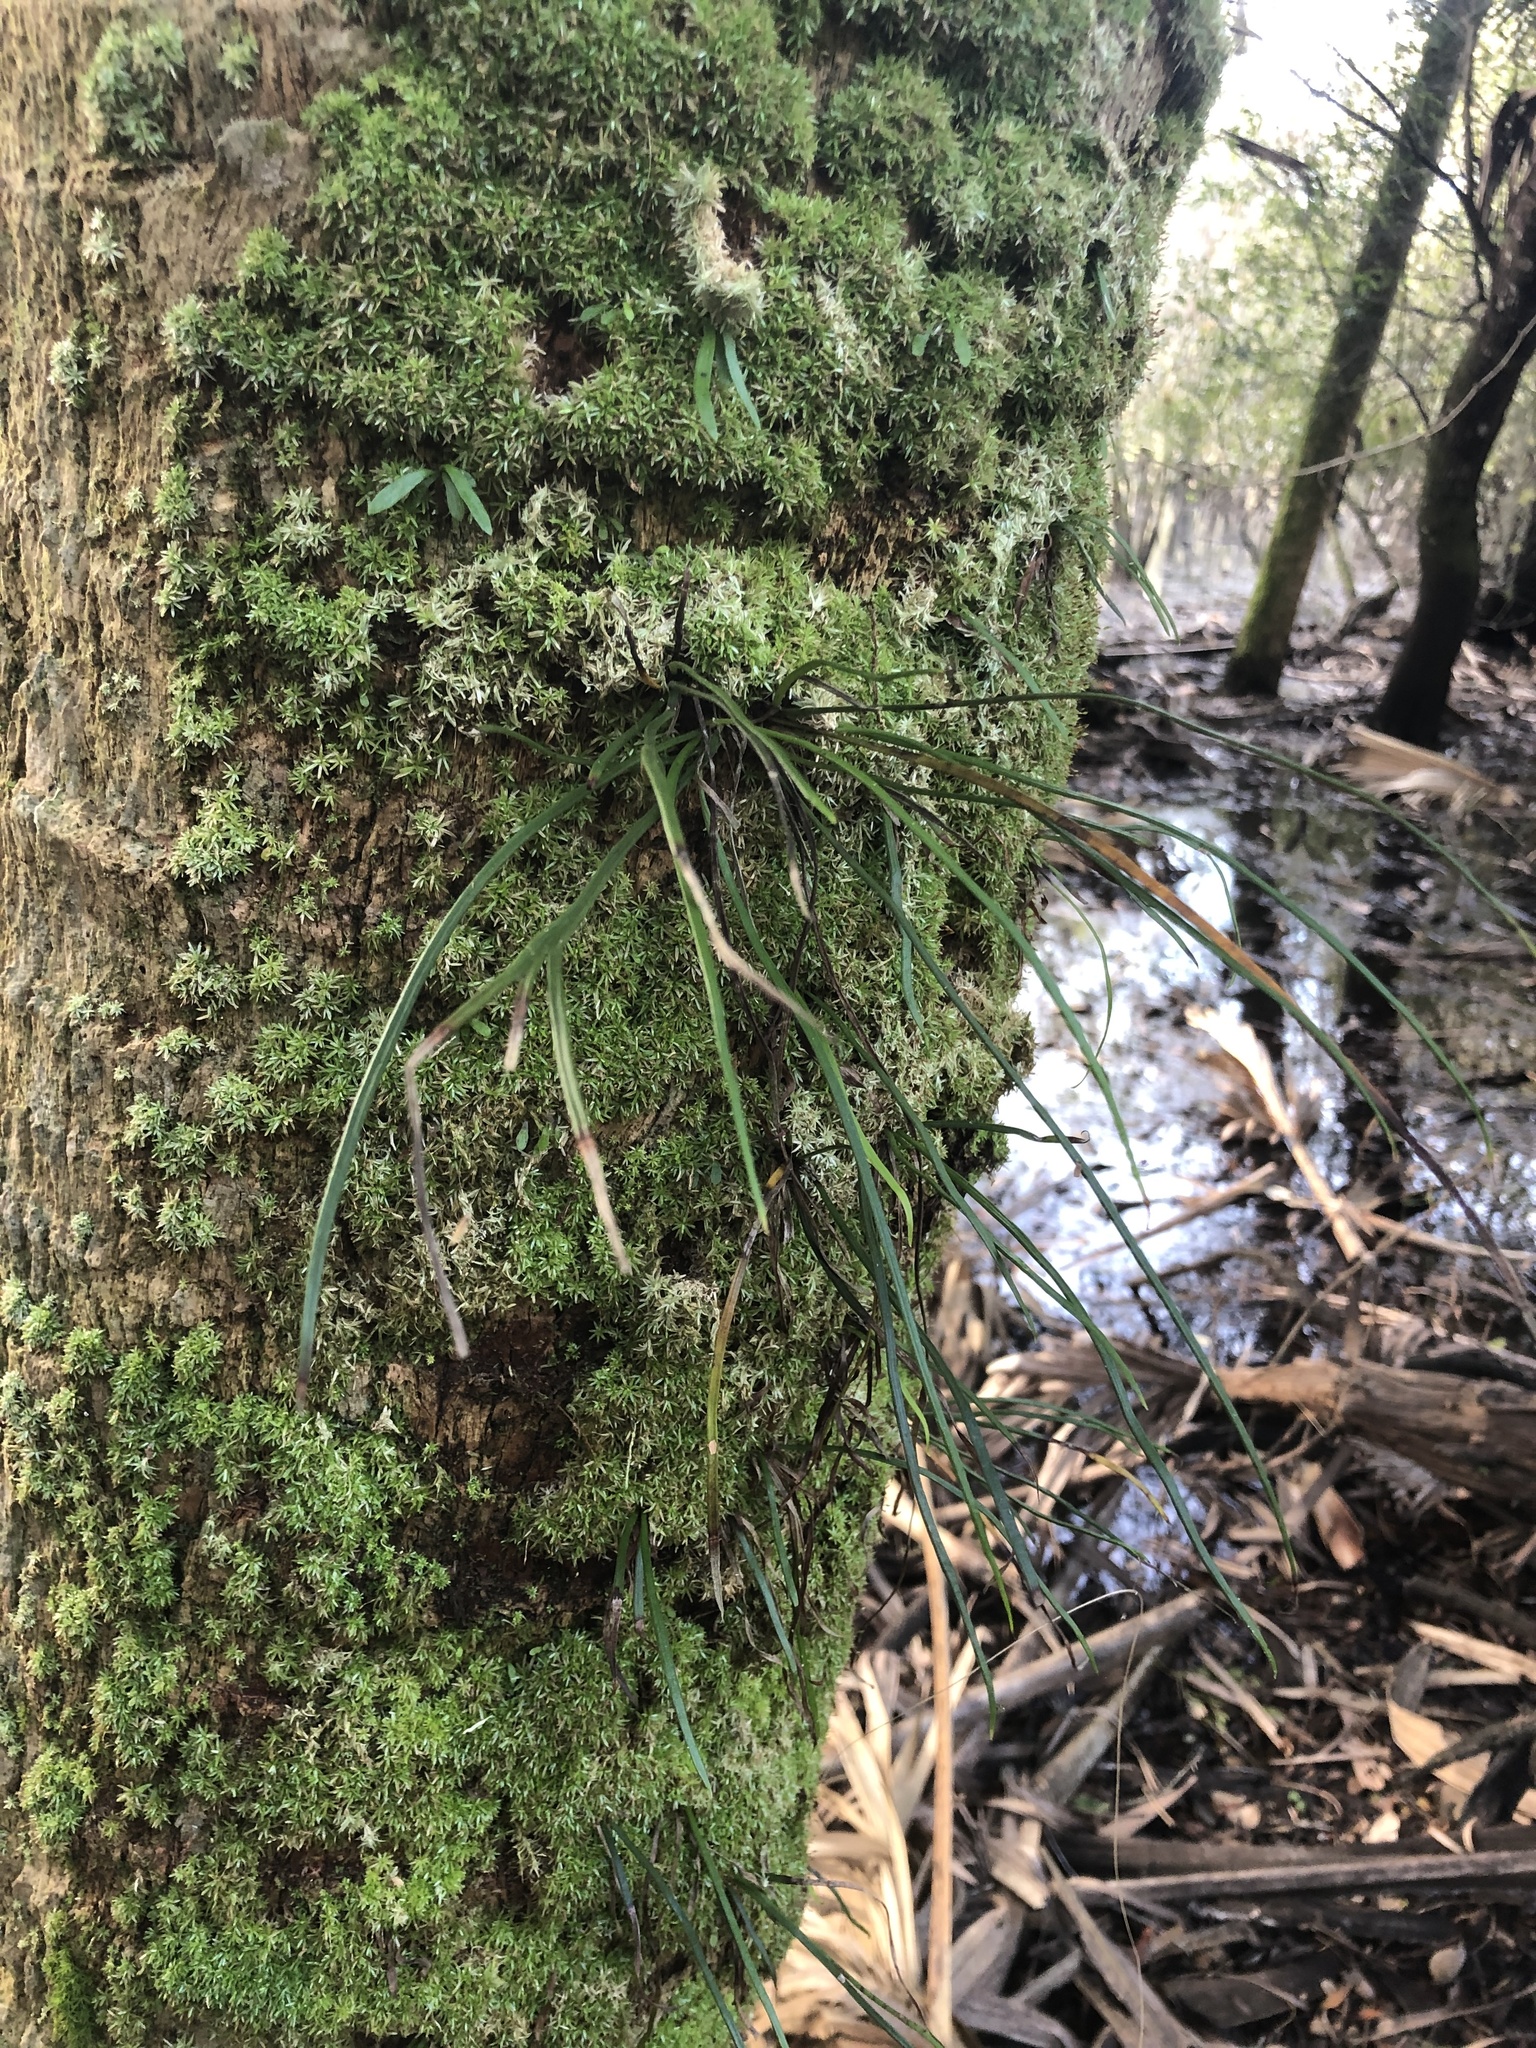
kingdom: Plantae
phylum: Tracheophyta
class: Polypodiopsida
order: Polypodiales
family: Pteridaceae
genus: Vittaria
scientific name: Vittaria lineata
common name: Shoestring fern
